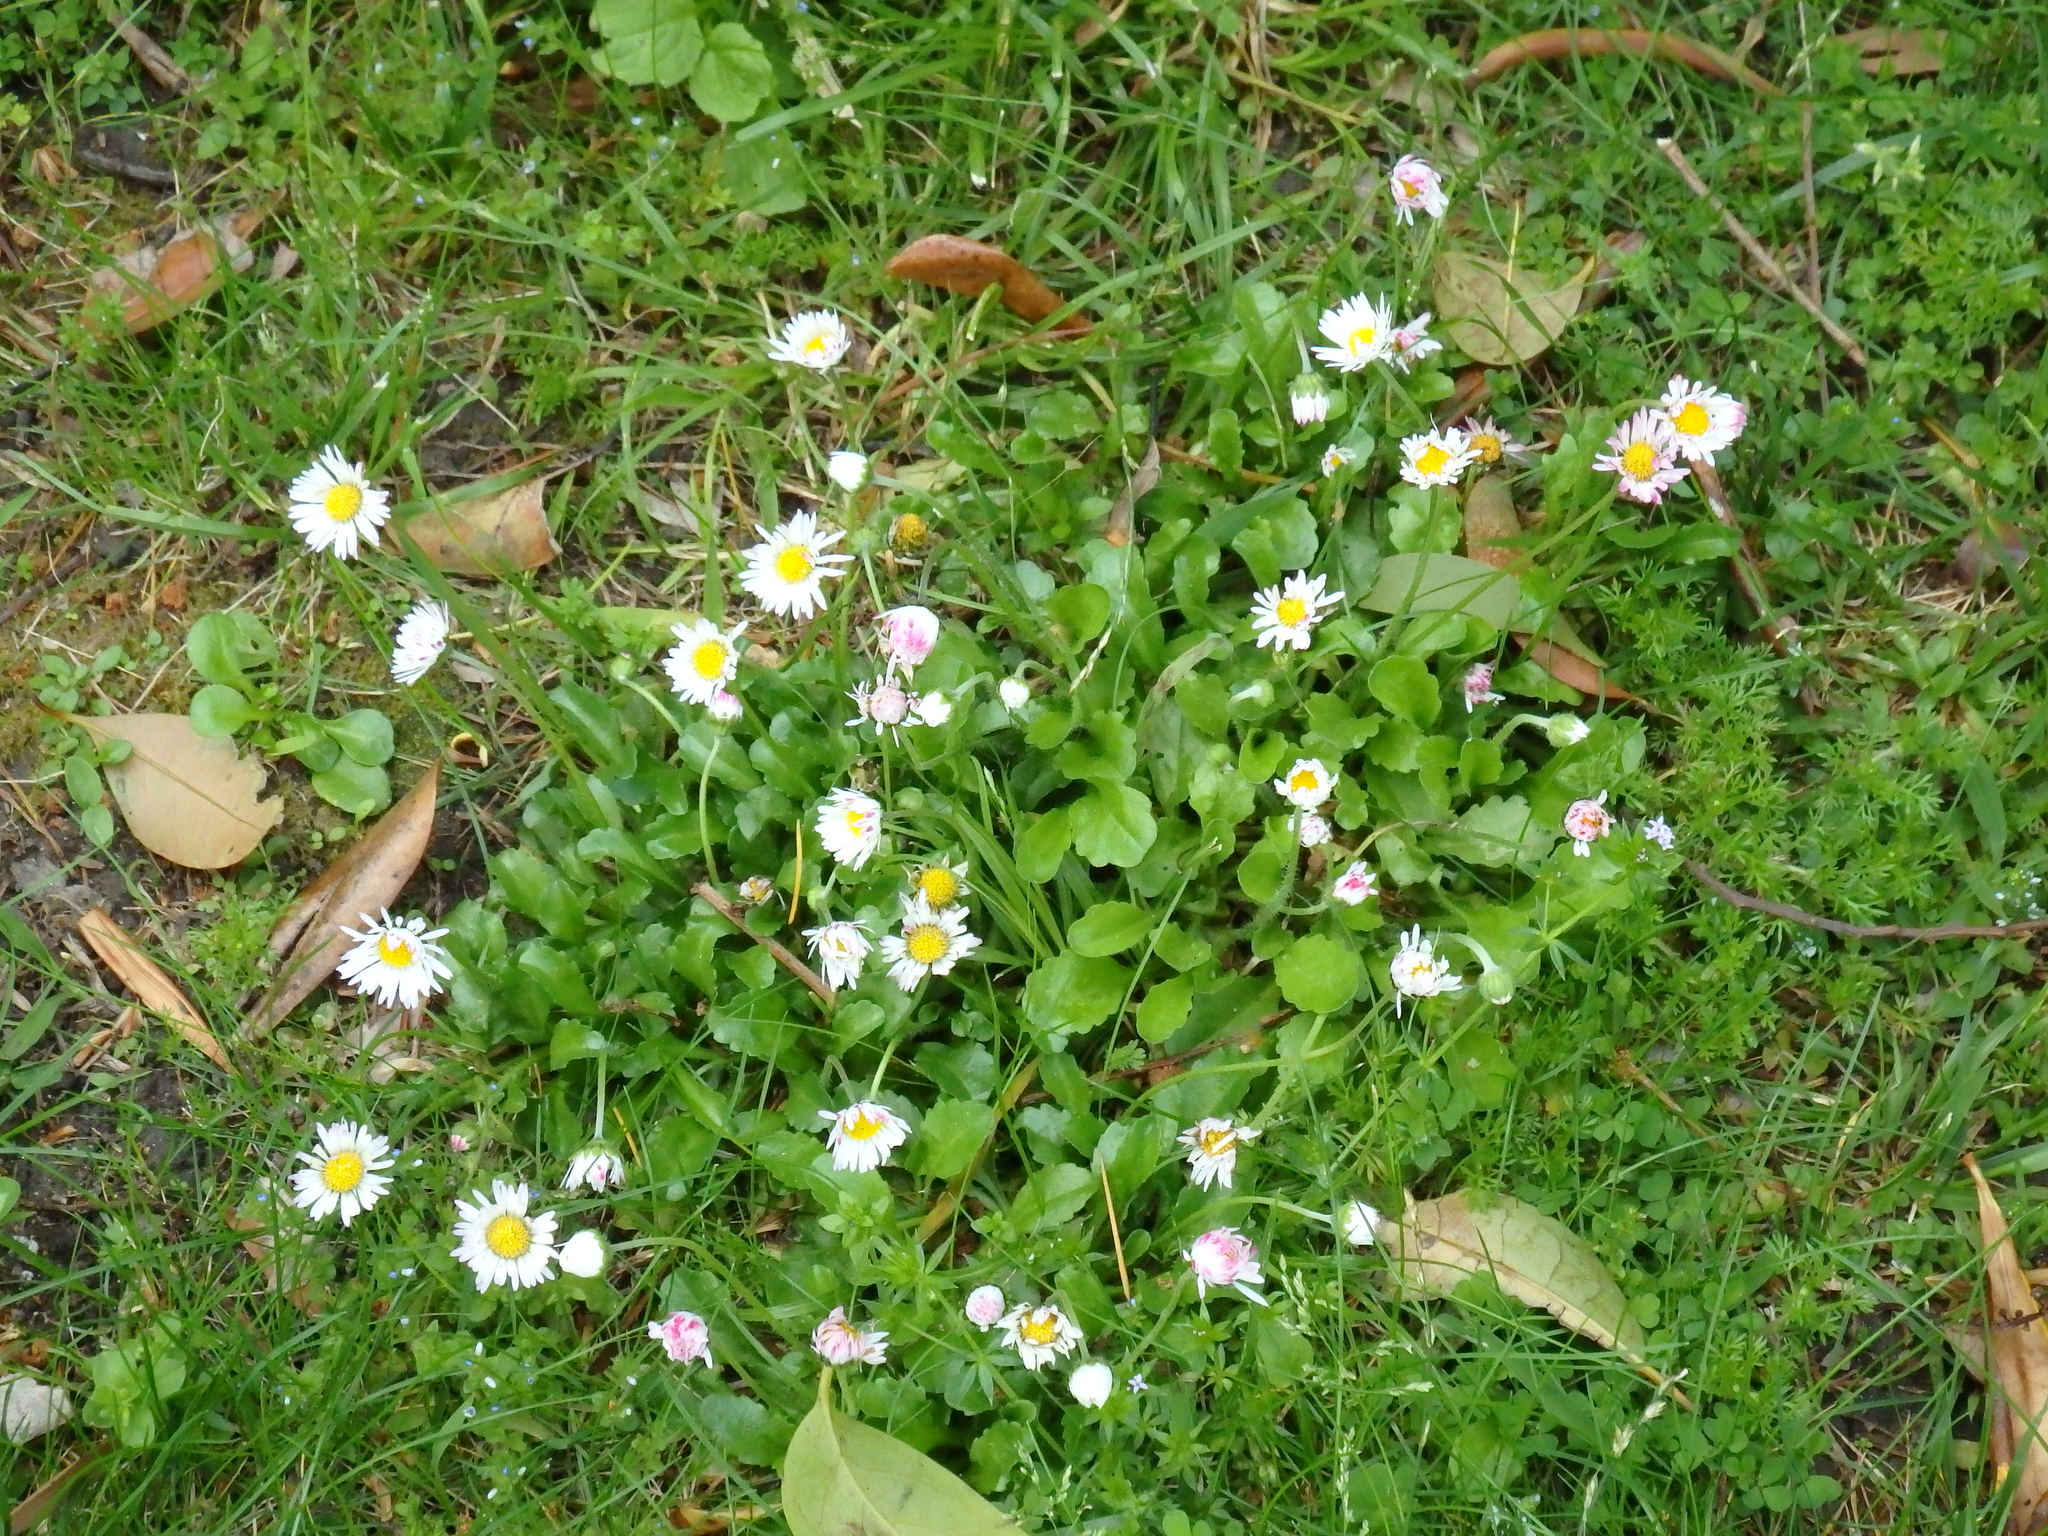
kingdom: Plantae
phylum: Tracheophyta
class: Magnoliopsida
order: Asterales
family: Asteraceae
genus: Bellis
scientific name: Bellis perennis
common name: Lawndaisy
